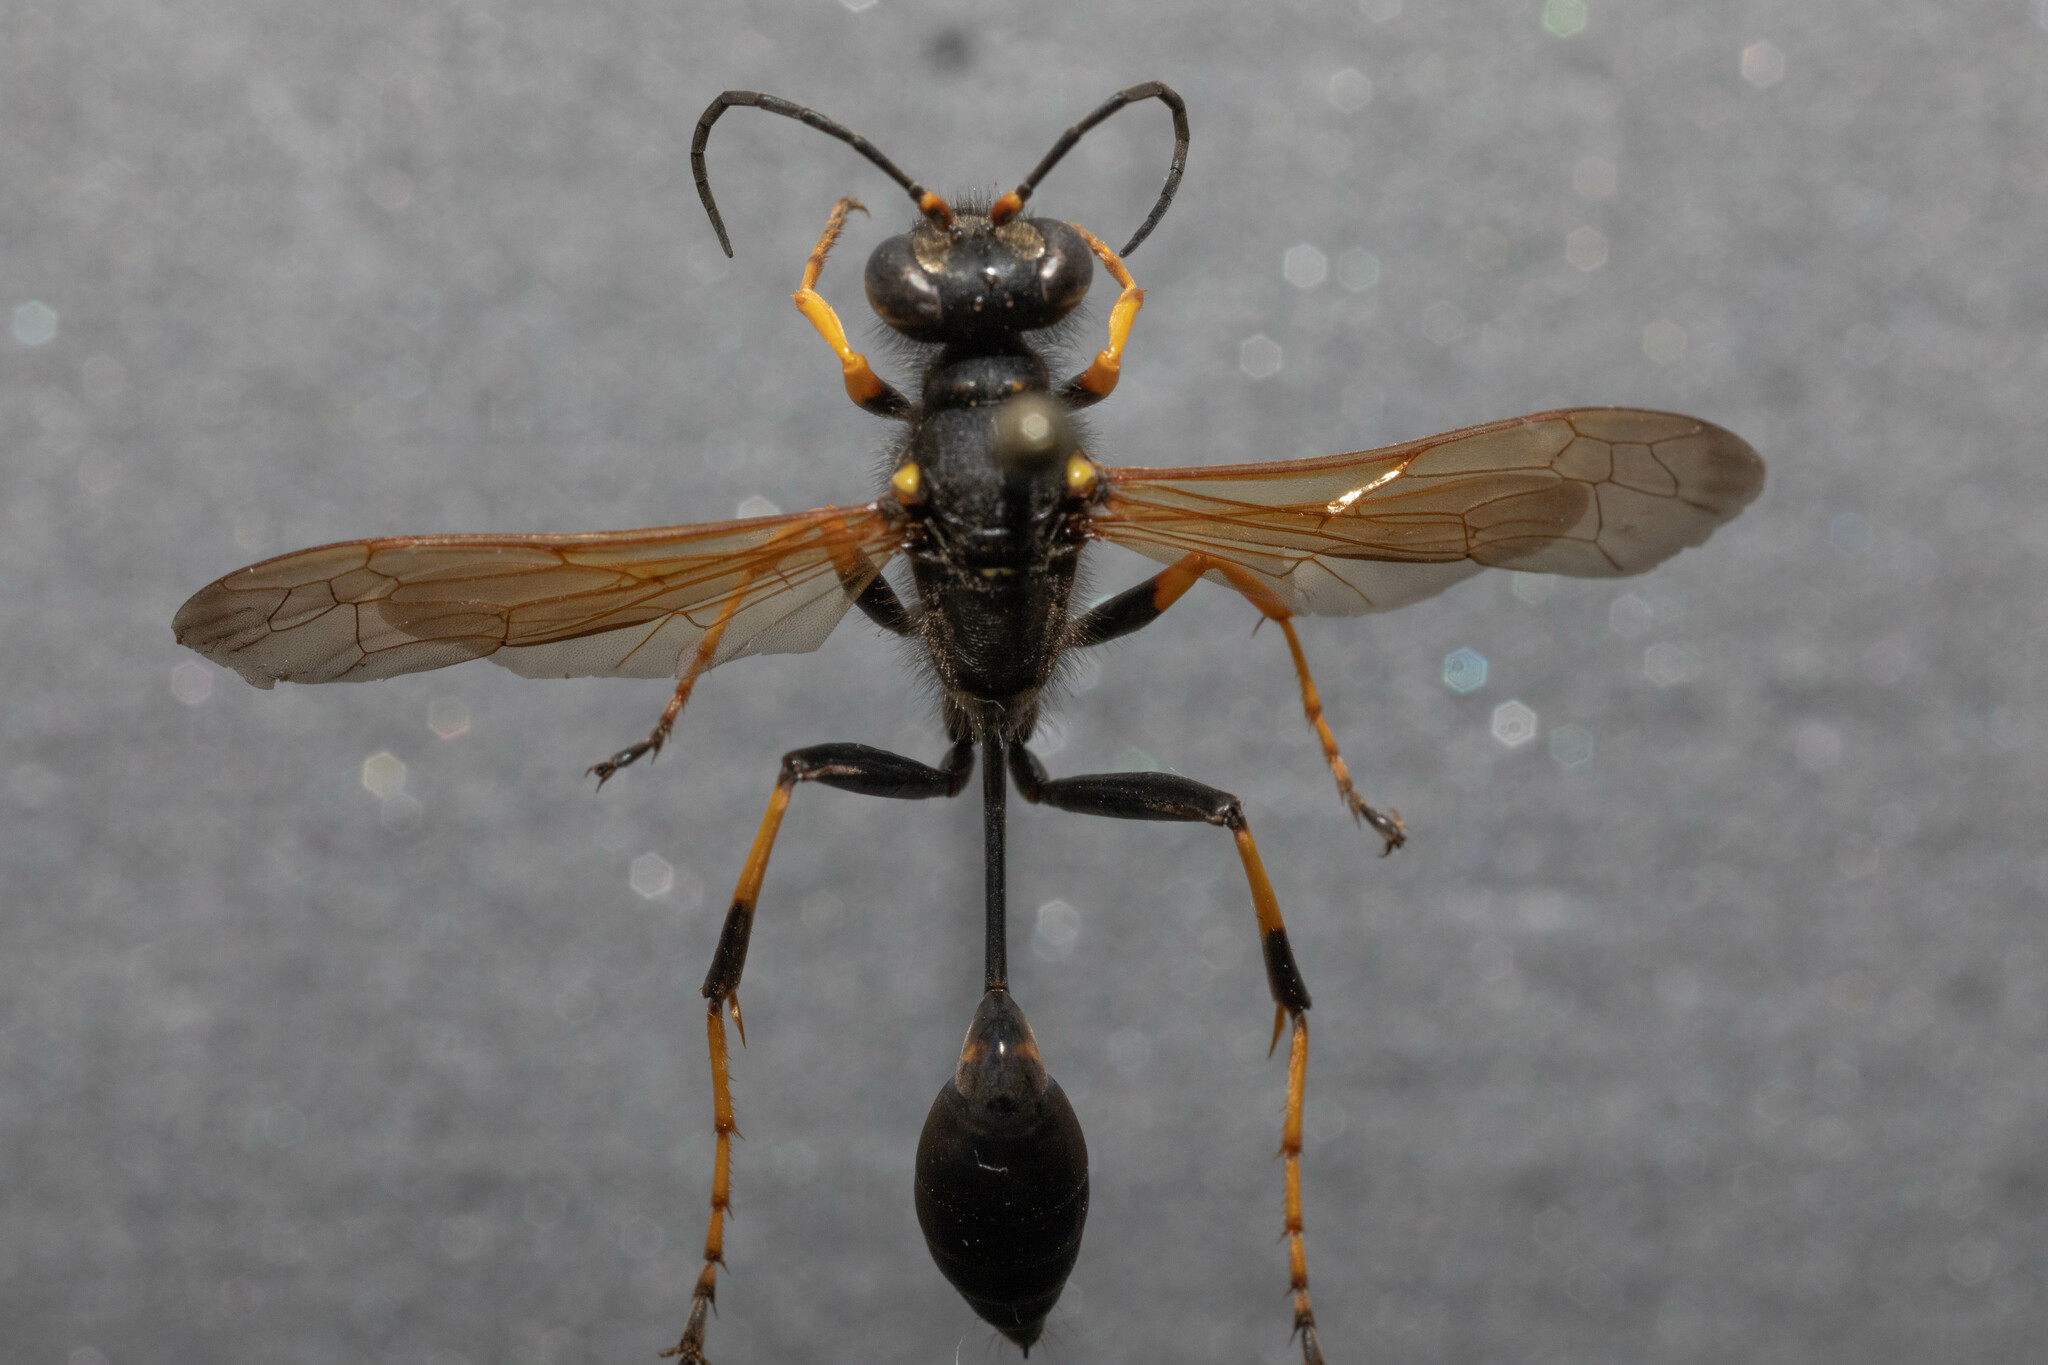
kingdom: Animalia
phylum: Arthropoda
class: Insecta
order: Hymenoptera
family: Sphecidae
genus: Sceliphron
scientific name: Sceliphron caementarium
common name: Mud dauber
